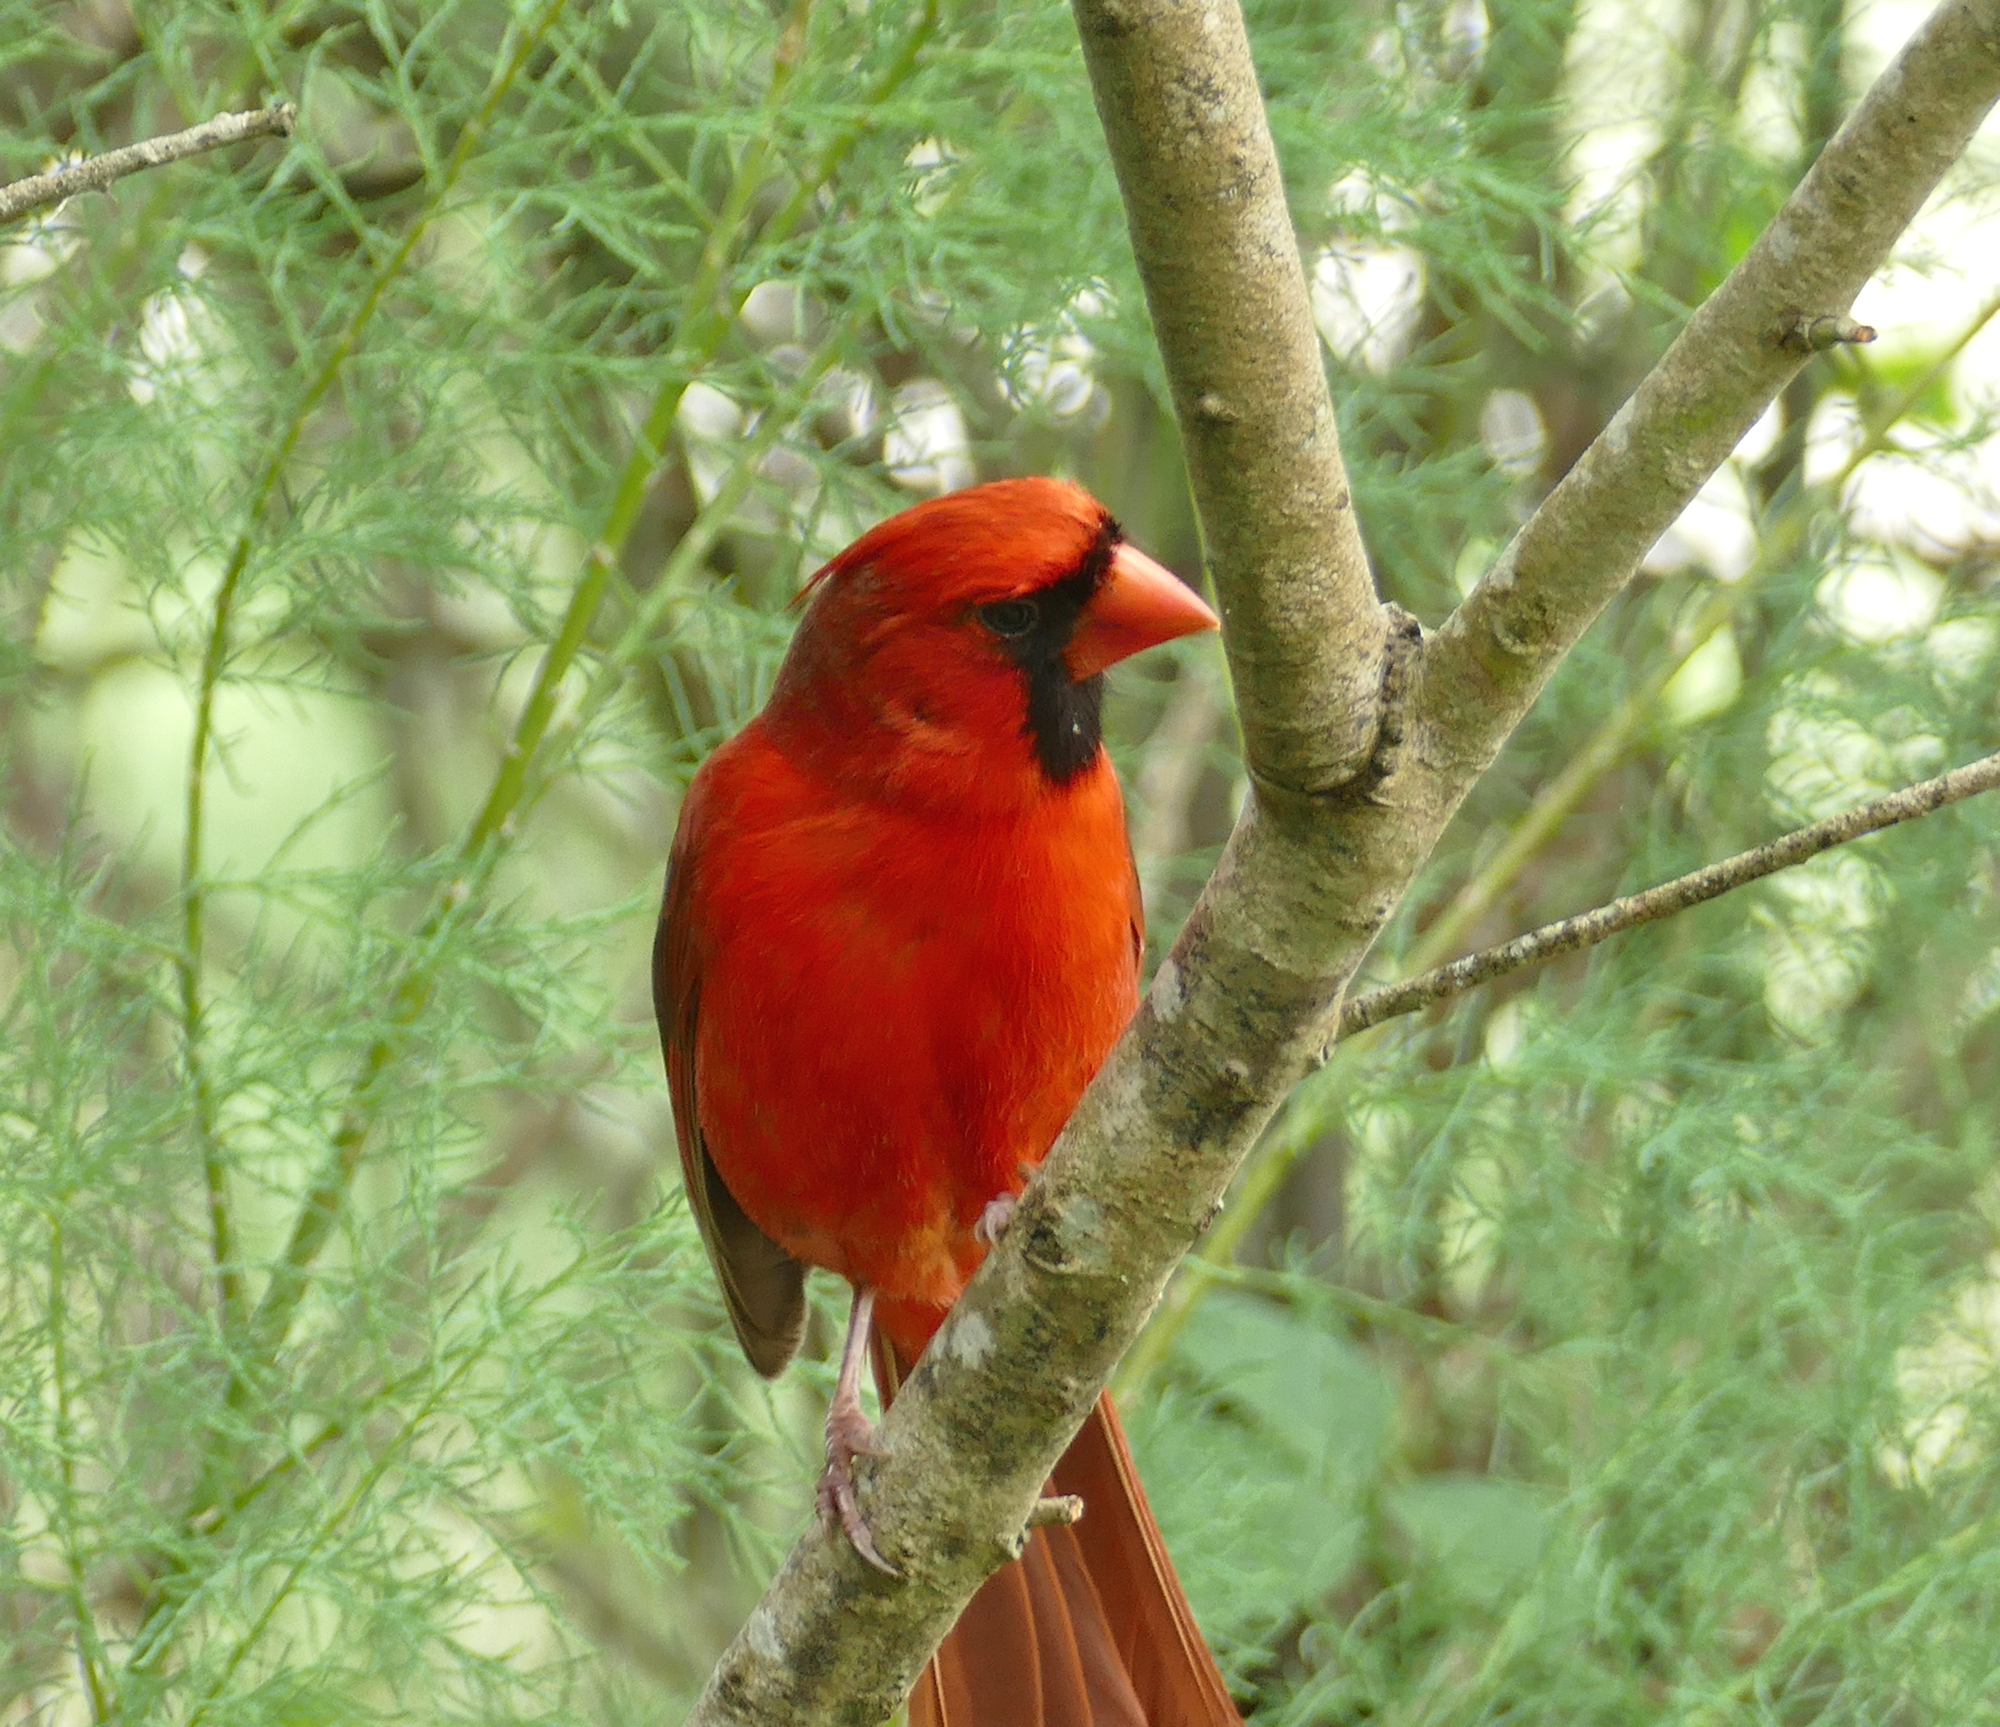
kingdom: Animalia
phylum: Chordata
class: Aves
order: Passeriformes
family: Cardinalidae
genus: Cardinalis
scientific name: Cardinalis cardinalis
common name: Northern cardinal
